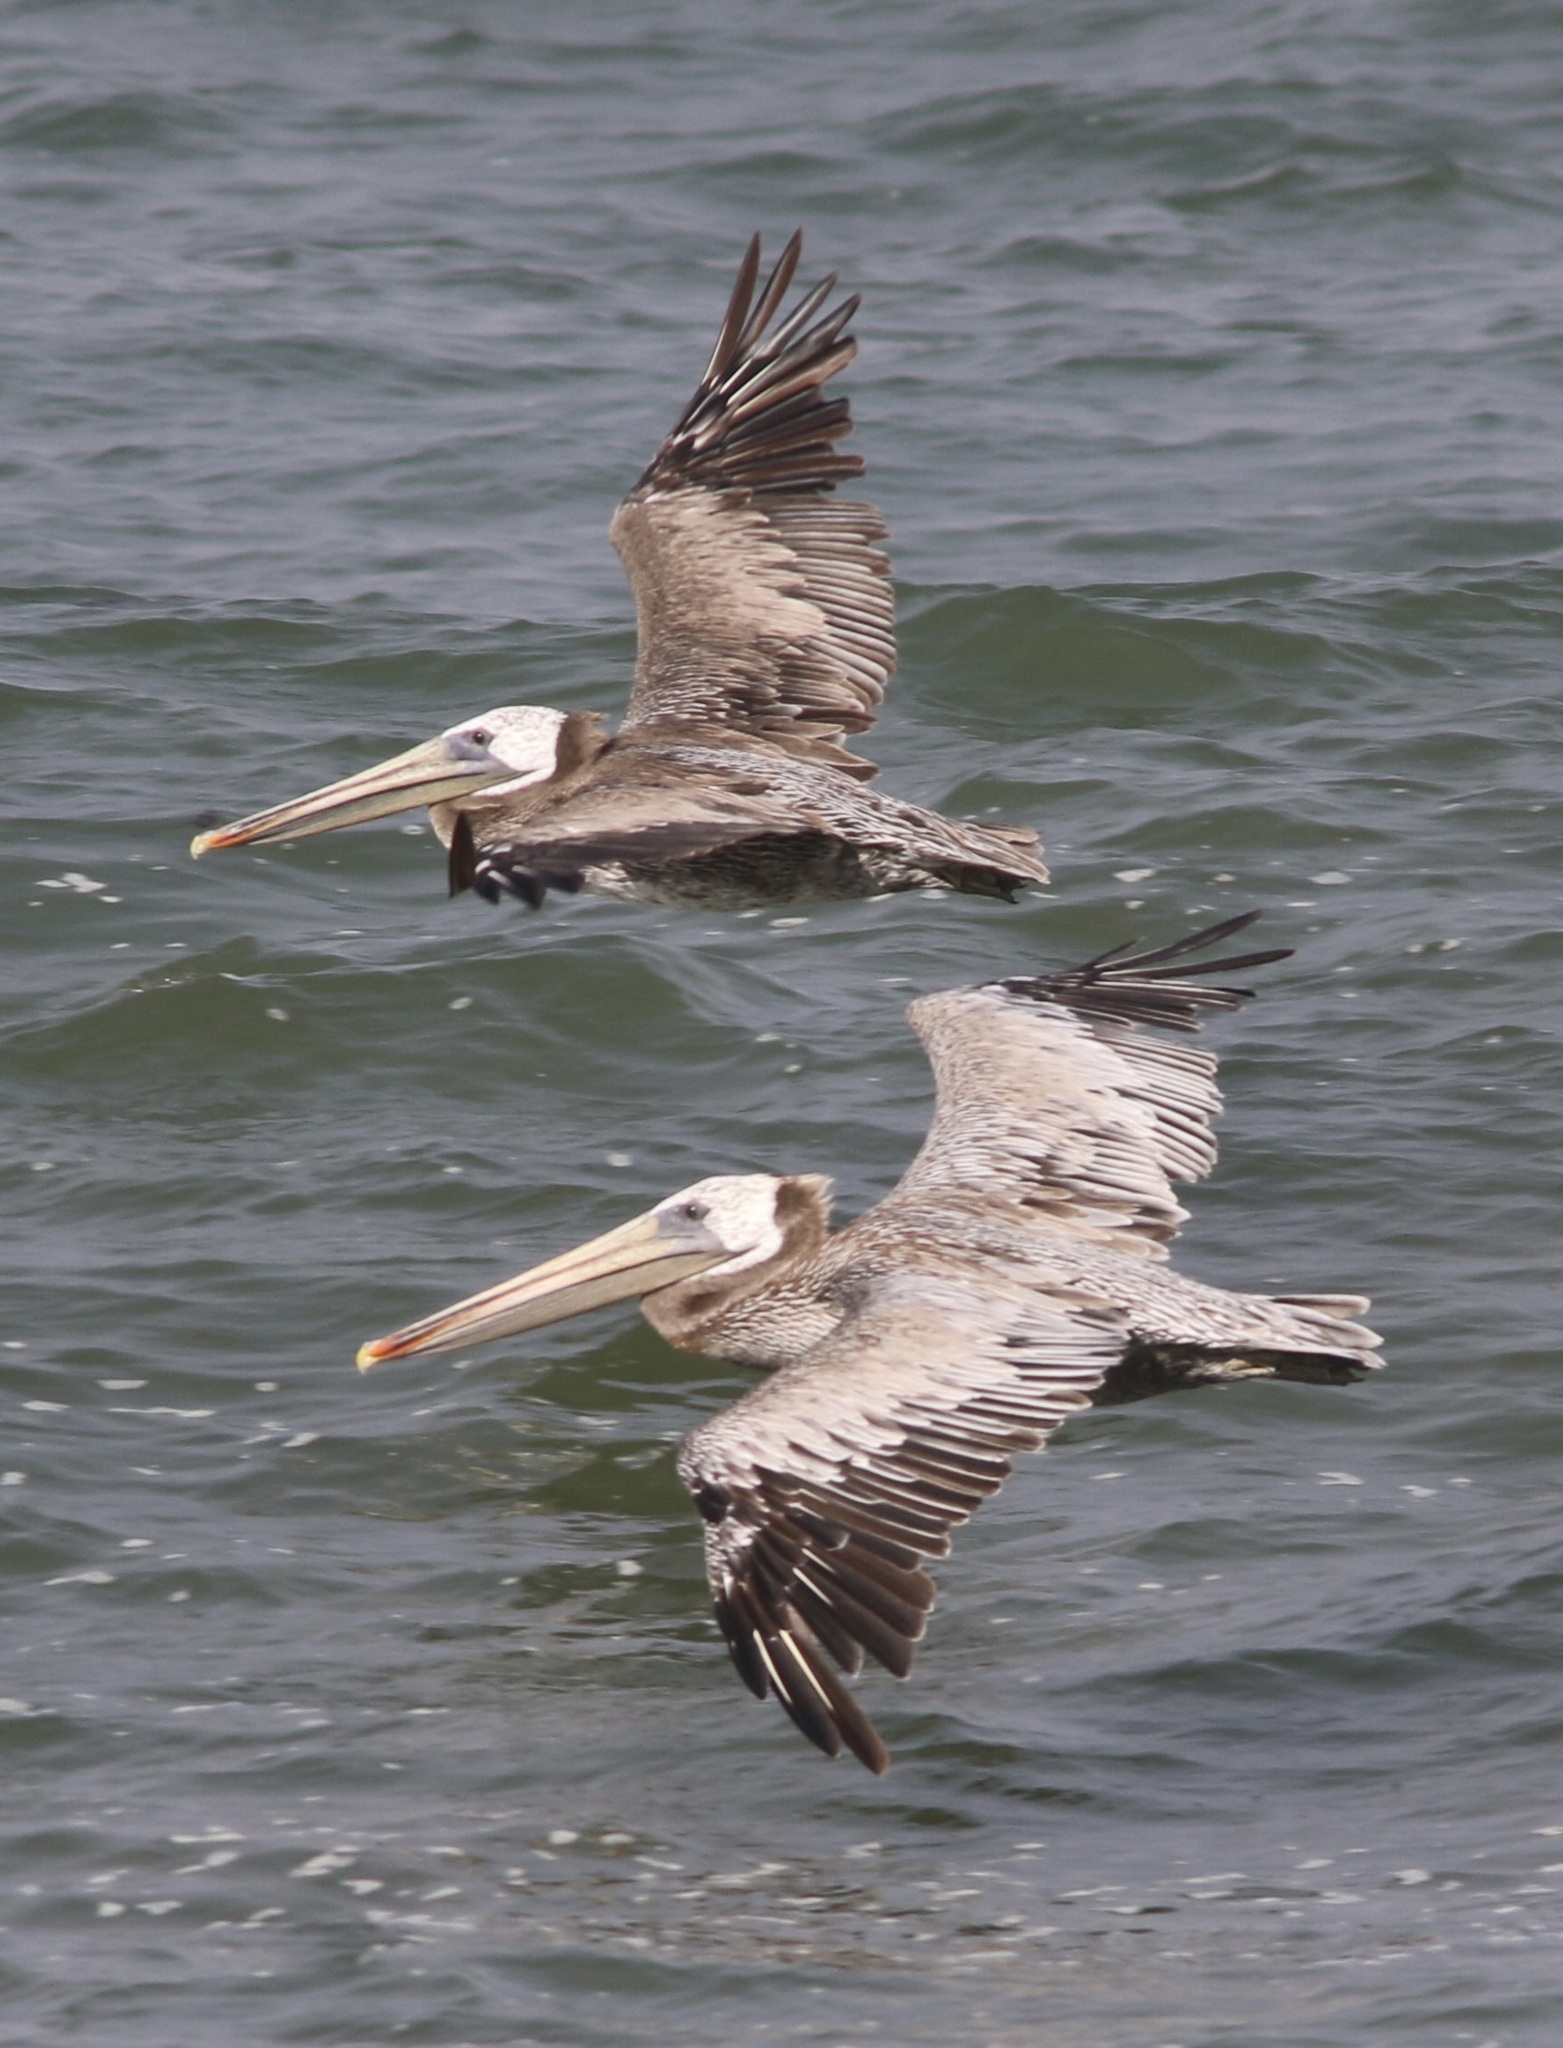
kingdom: Animalia
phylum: Chordata
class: Aves
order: Pelecaniformes
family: Pelecanidae
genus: Pelecanus
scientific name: Pelecanus occidentalis
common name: Brown pelican
